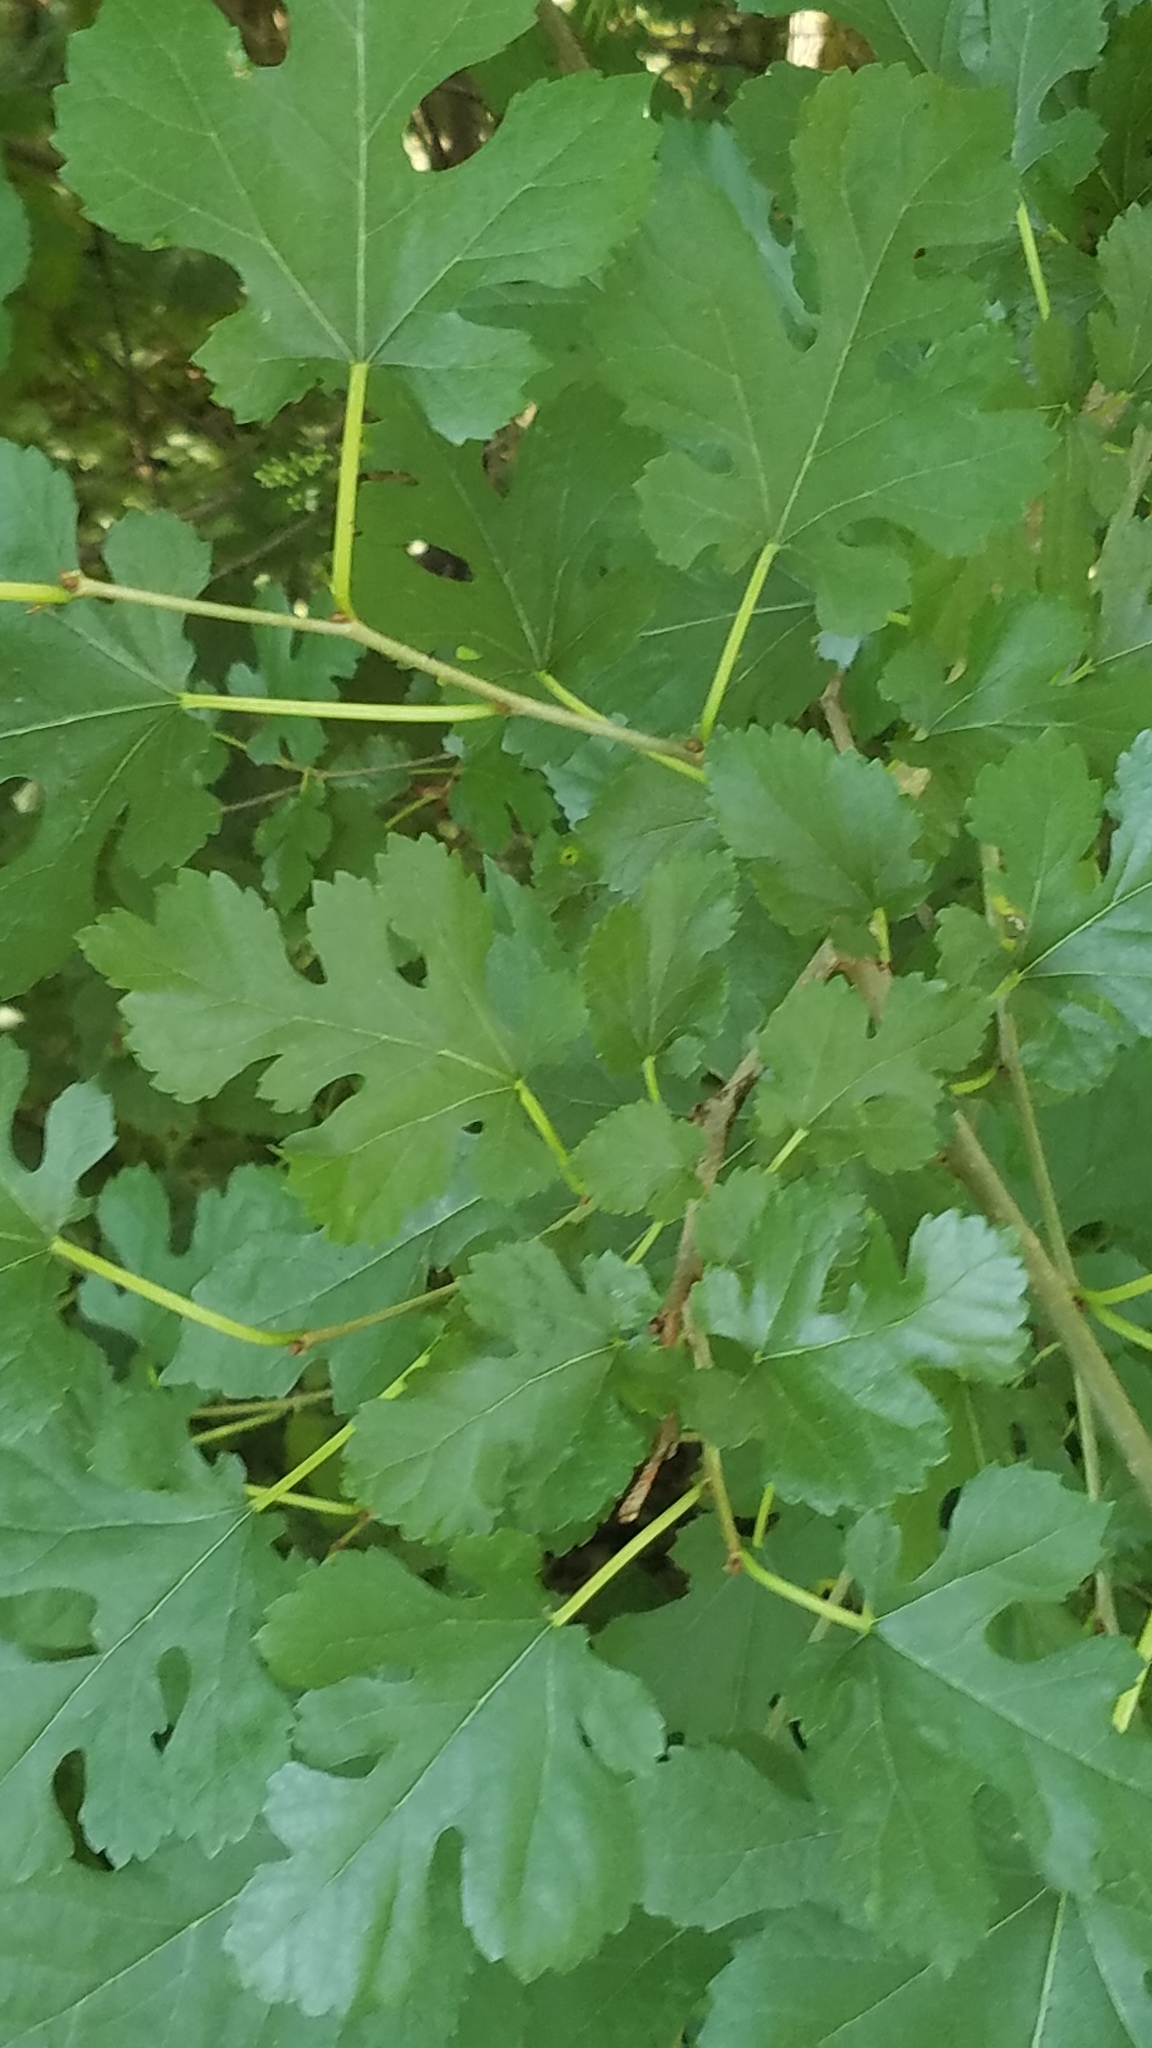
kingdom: Plantae
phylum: Tracheophyta
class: Magnoliopsida
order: Rosales
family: Moraceae
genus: Morus
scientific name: Morus alba
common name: White mulberry
